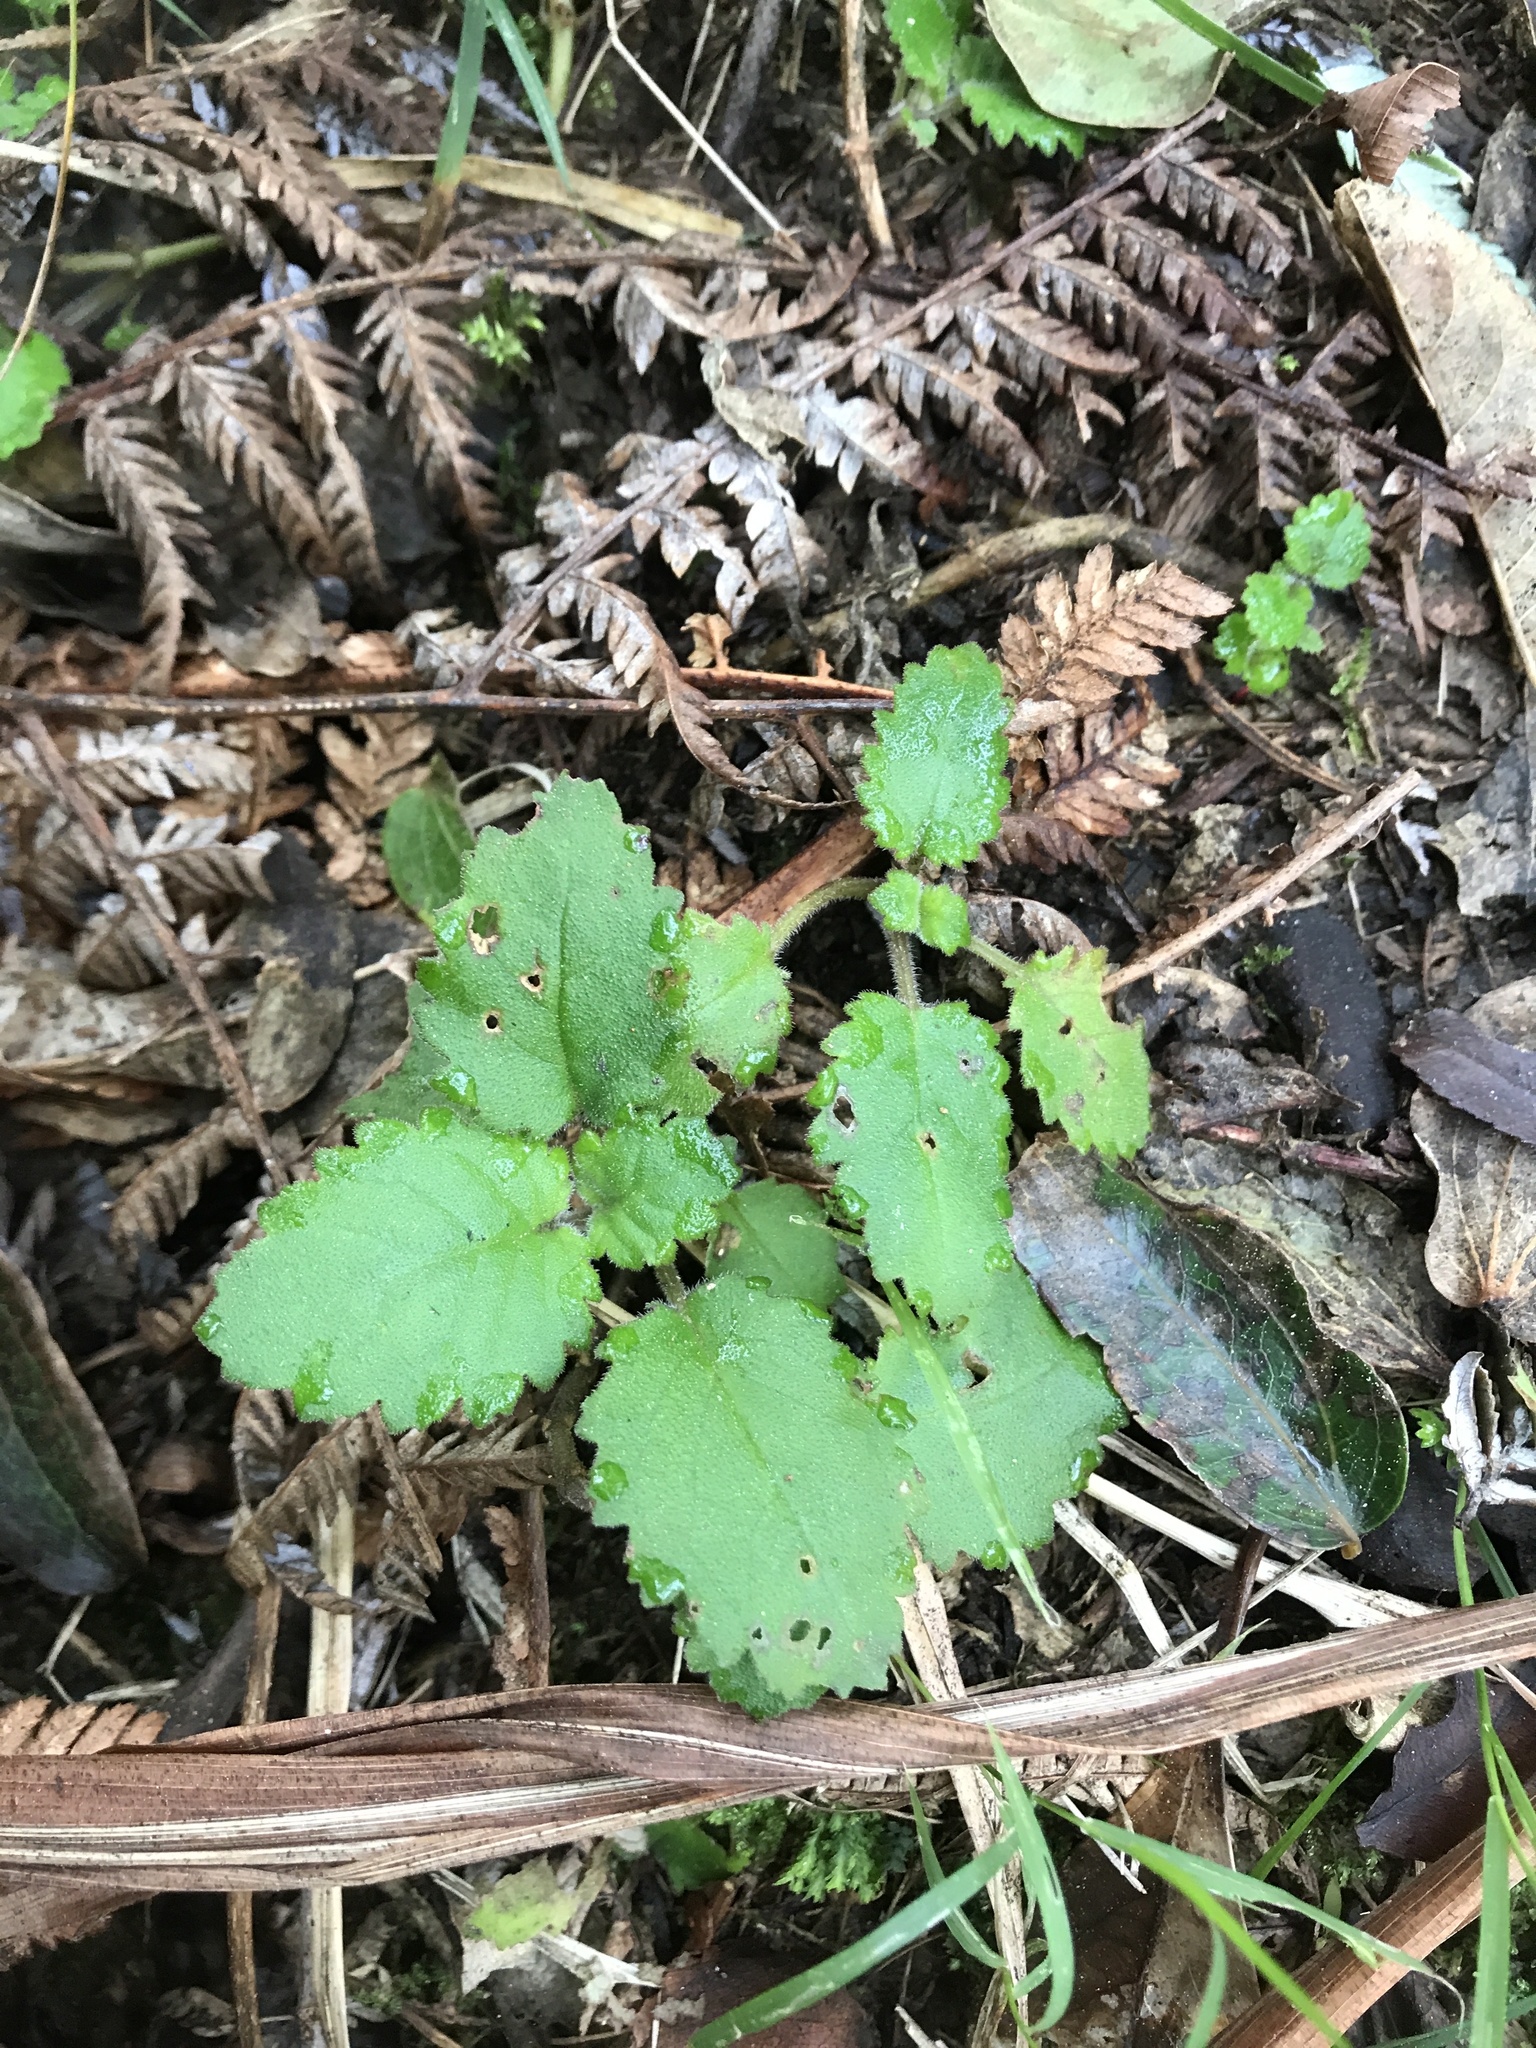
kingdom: Plantae
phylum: Tracheophyta
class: Magnoliopsida
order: Lamiales
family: Calceolariaceae
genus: Jovellana
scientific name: Jovellana sinclairii
